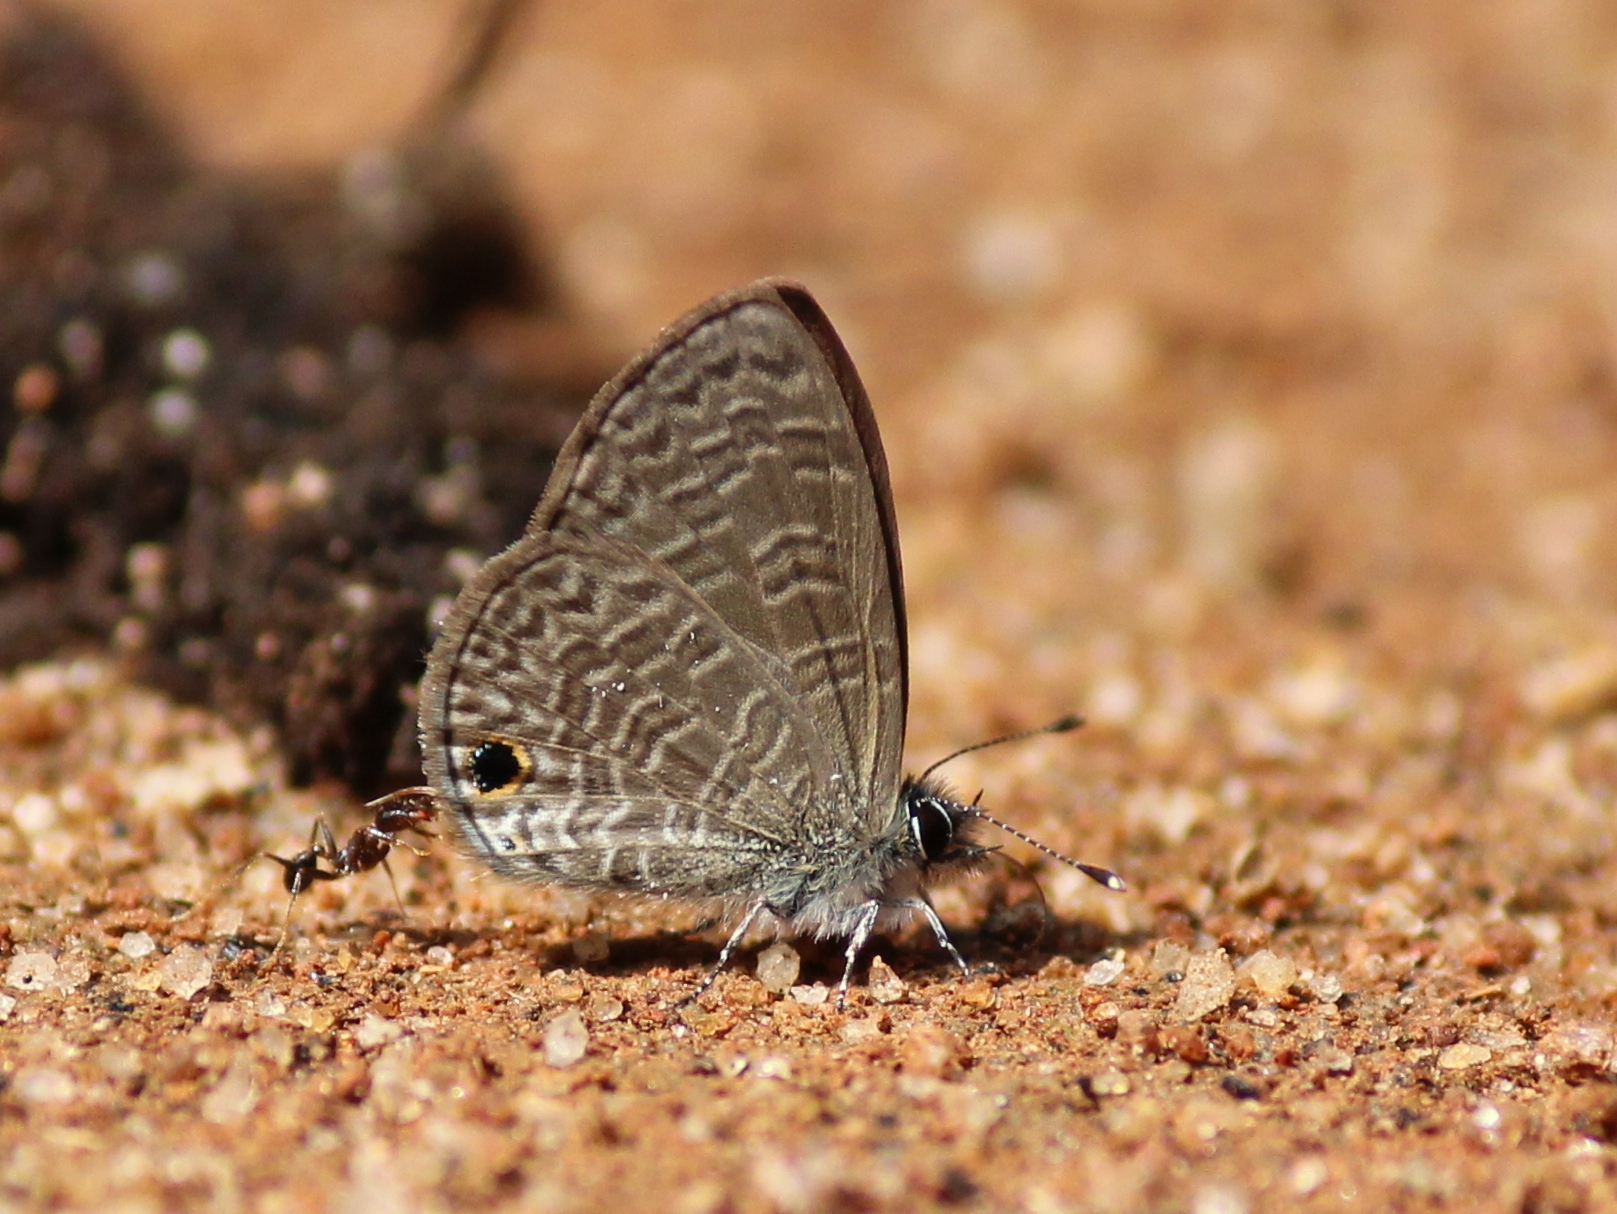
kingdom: Animalia
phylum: Arthropoda
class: Insecta
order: Lepidoptera
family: Lycaenidae
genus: Prosotas
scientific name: Prosotas dubiosa
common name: Tailless lineblue
